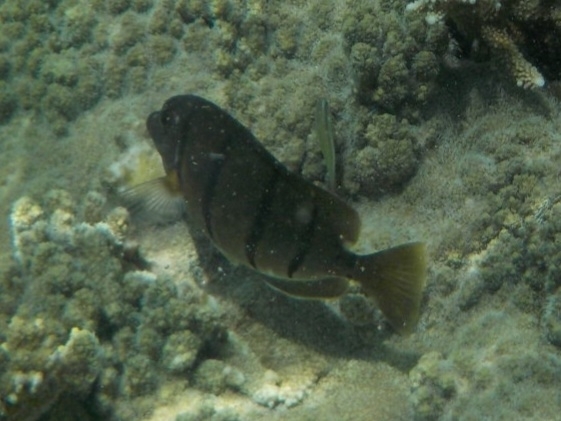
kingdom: Animalia
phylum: Chordata
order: Perciformes
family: Acanthuridae
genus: Acanthurus
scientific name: Acanthurus triostegus
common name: Convict surgeonfish
